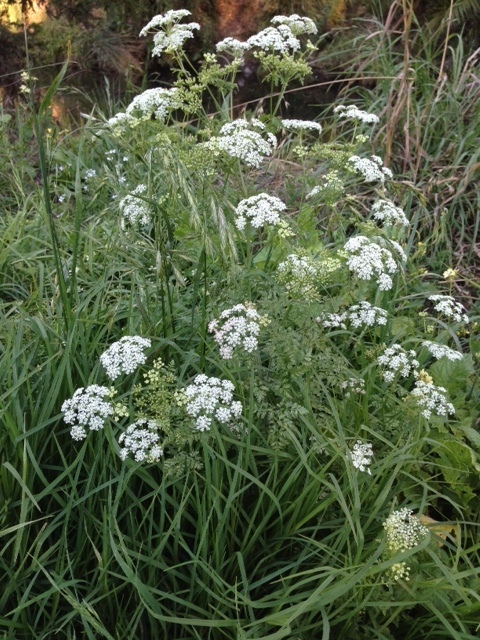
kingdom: Plantae
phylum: Tracheophyta
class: Magnoliopsida
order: Apiales
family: Apiaceae
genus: Conium
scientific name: Conium maculatum
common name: Hemlock
